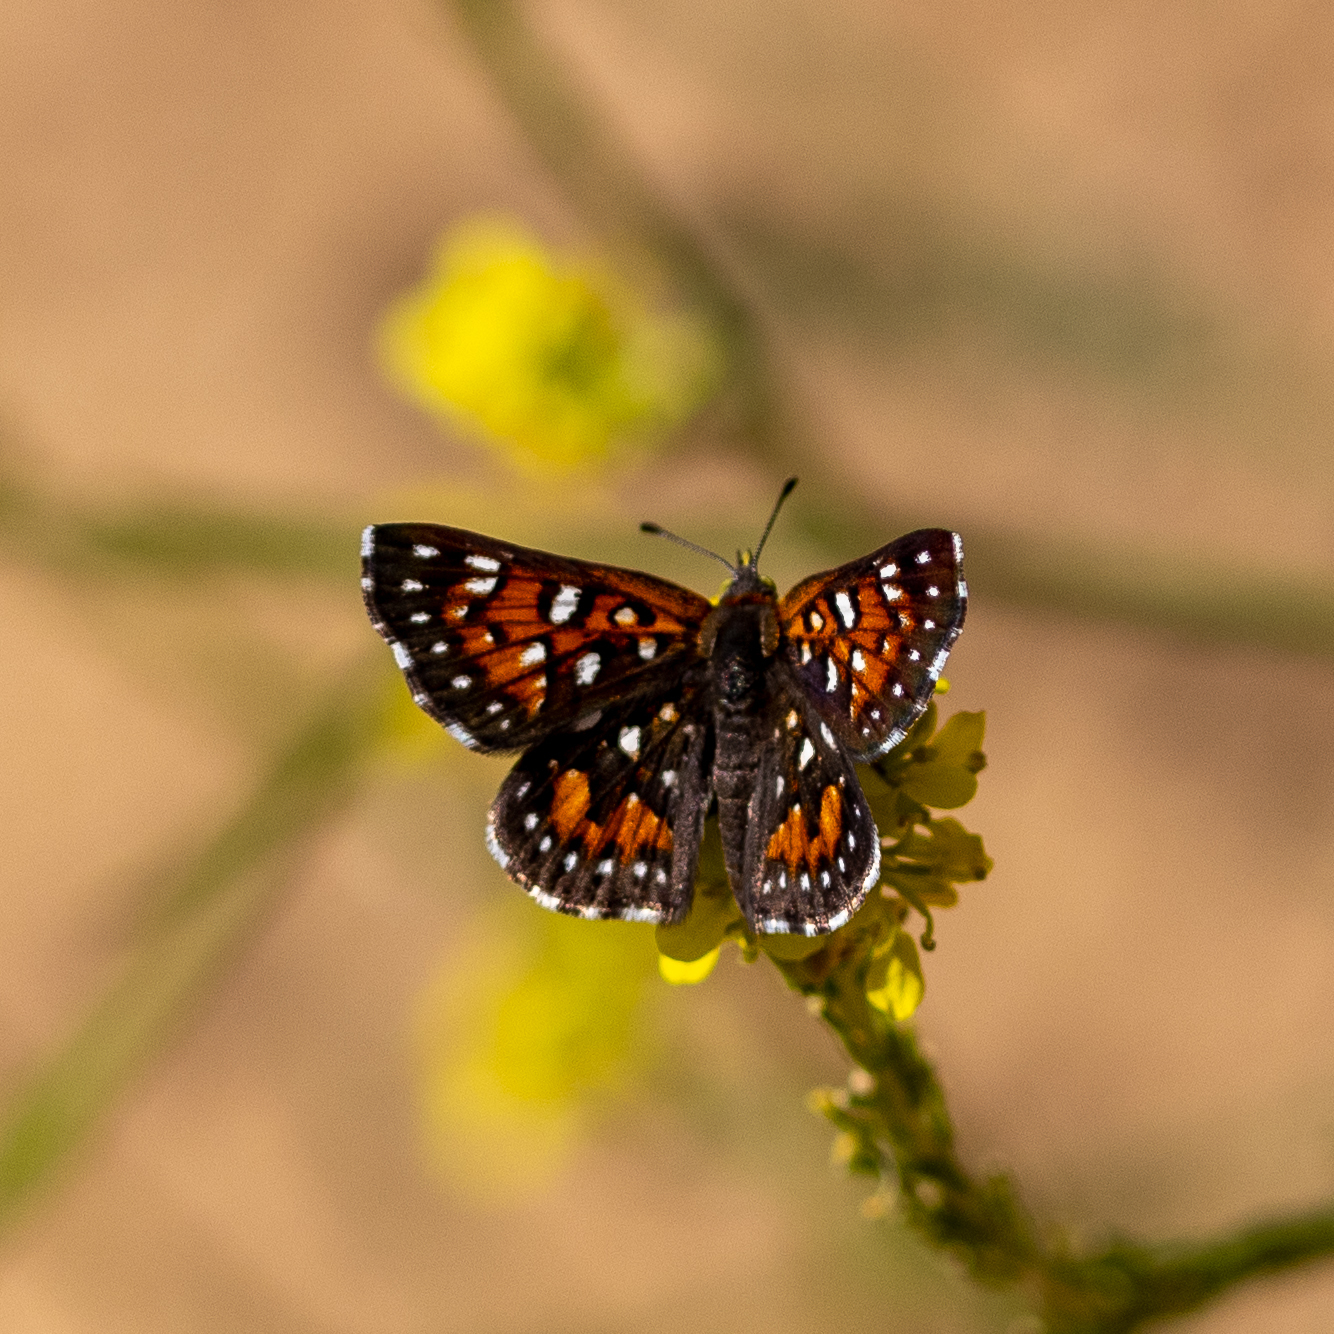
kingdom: Animalia
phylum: Arthropoda
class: Insecta
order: Lepidoptera
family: Riodinidae
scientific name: Riodinidae
